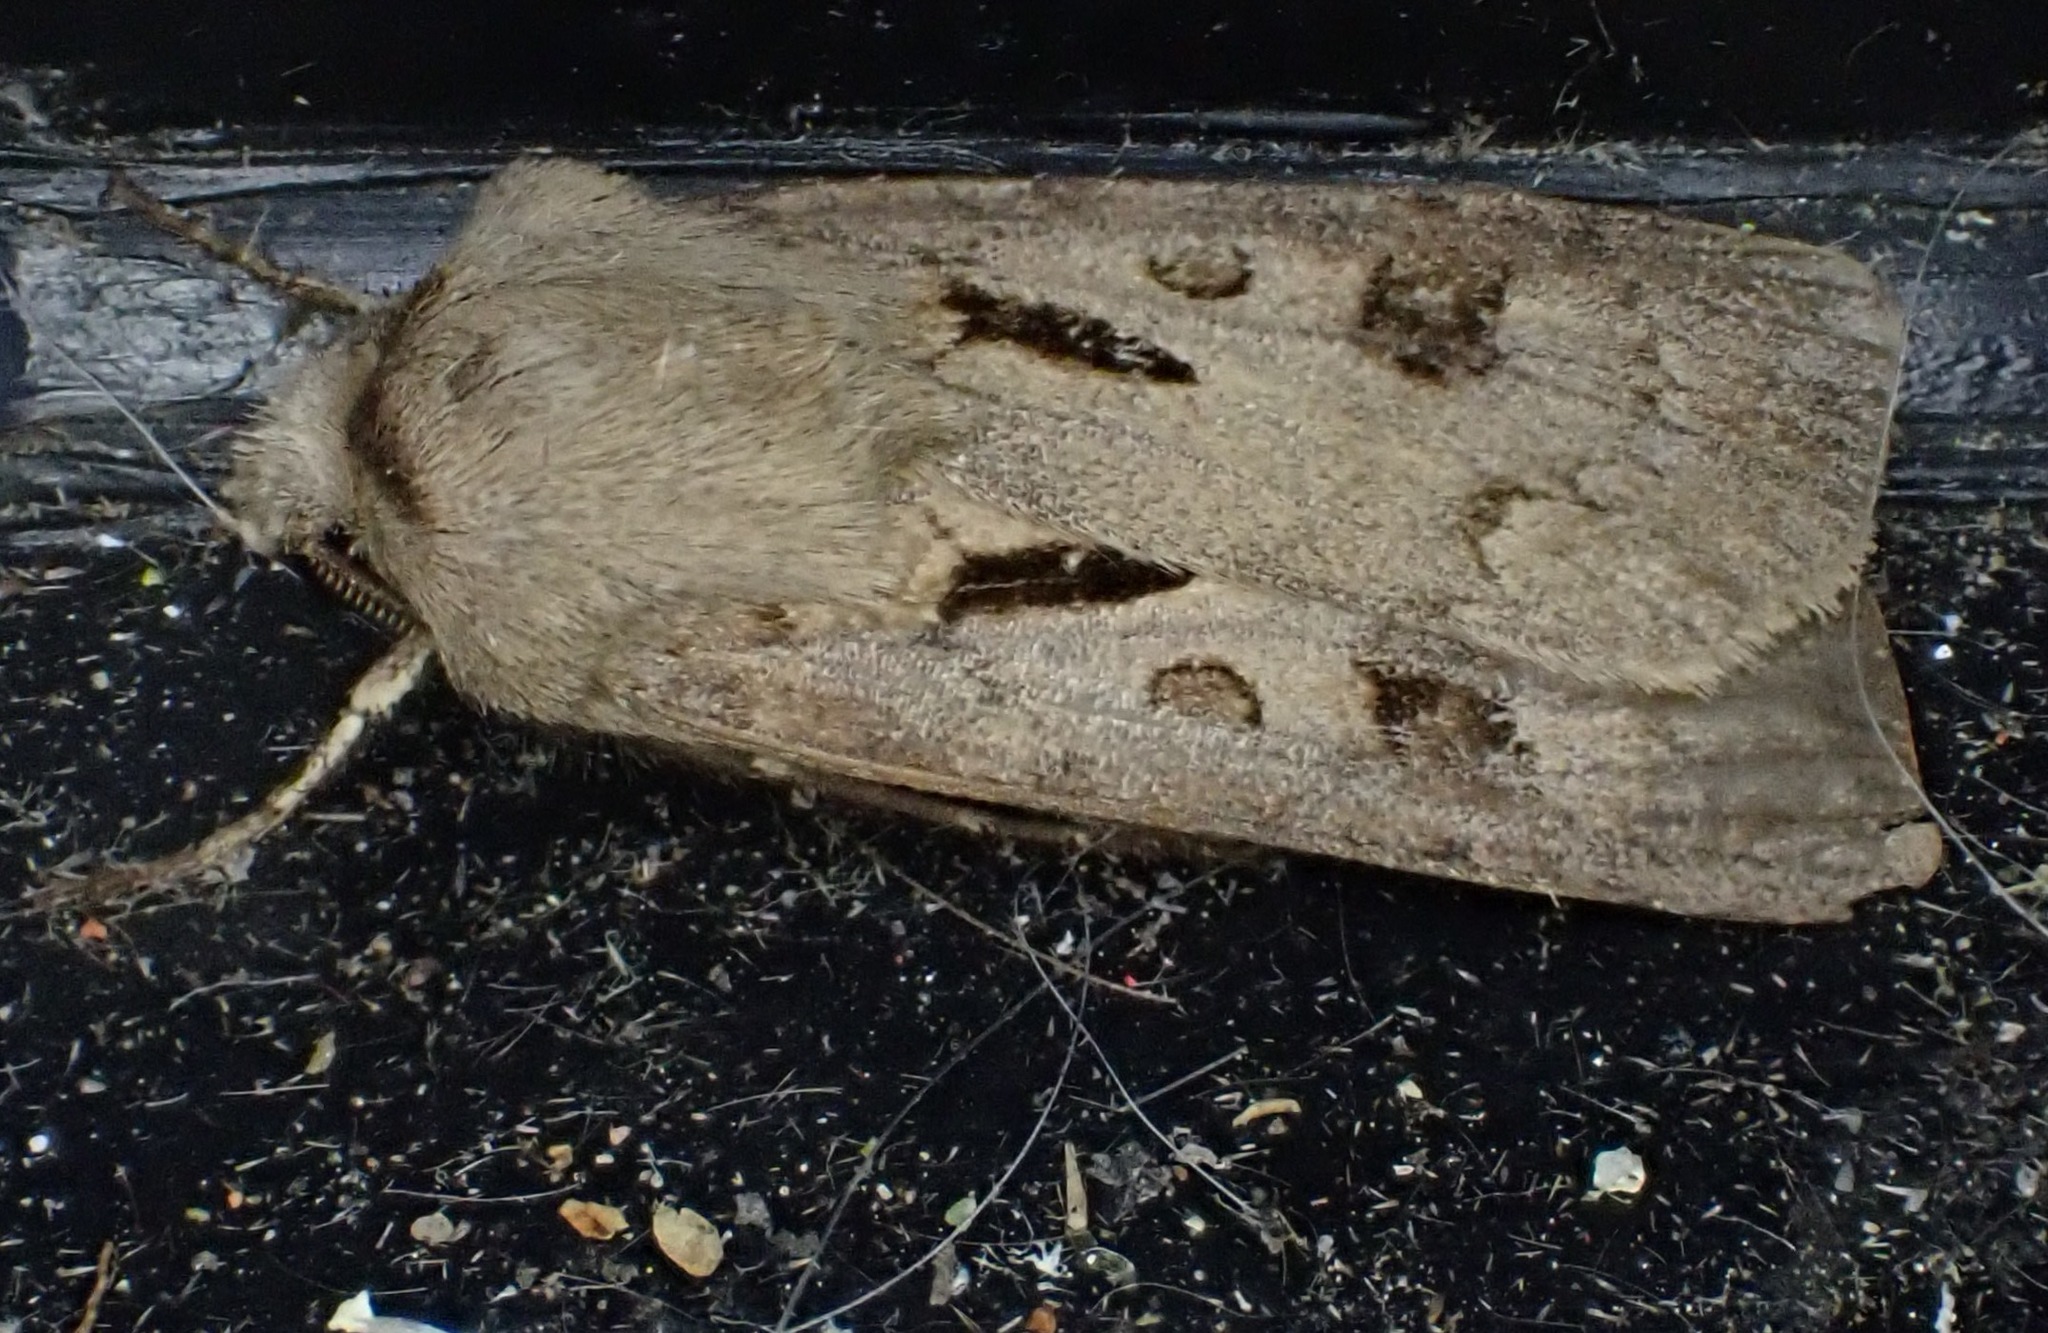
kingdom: Animalia
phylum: Arthropoda
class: Insecta
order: Lepidoptera
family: Noctuidae
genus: Agrotis
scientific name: Agrotis exclamationis
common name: Heart and dart
